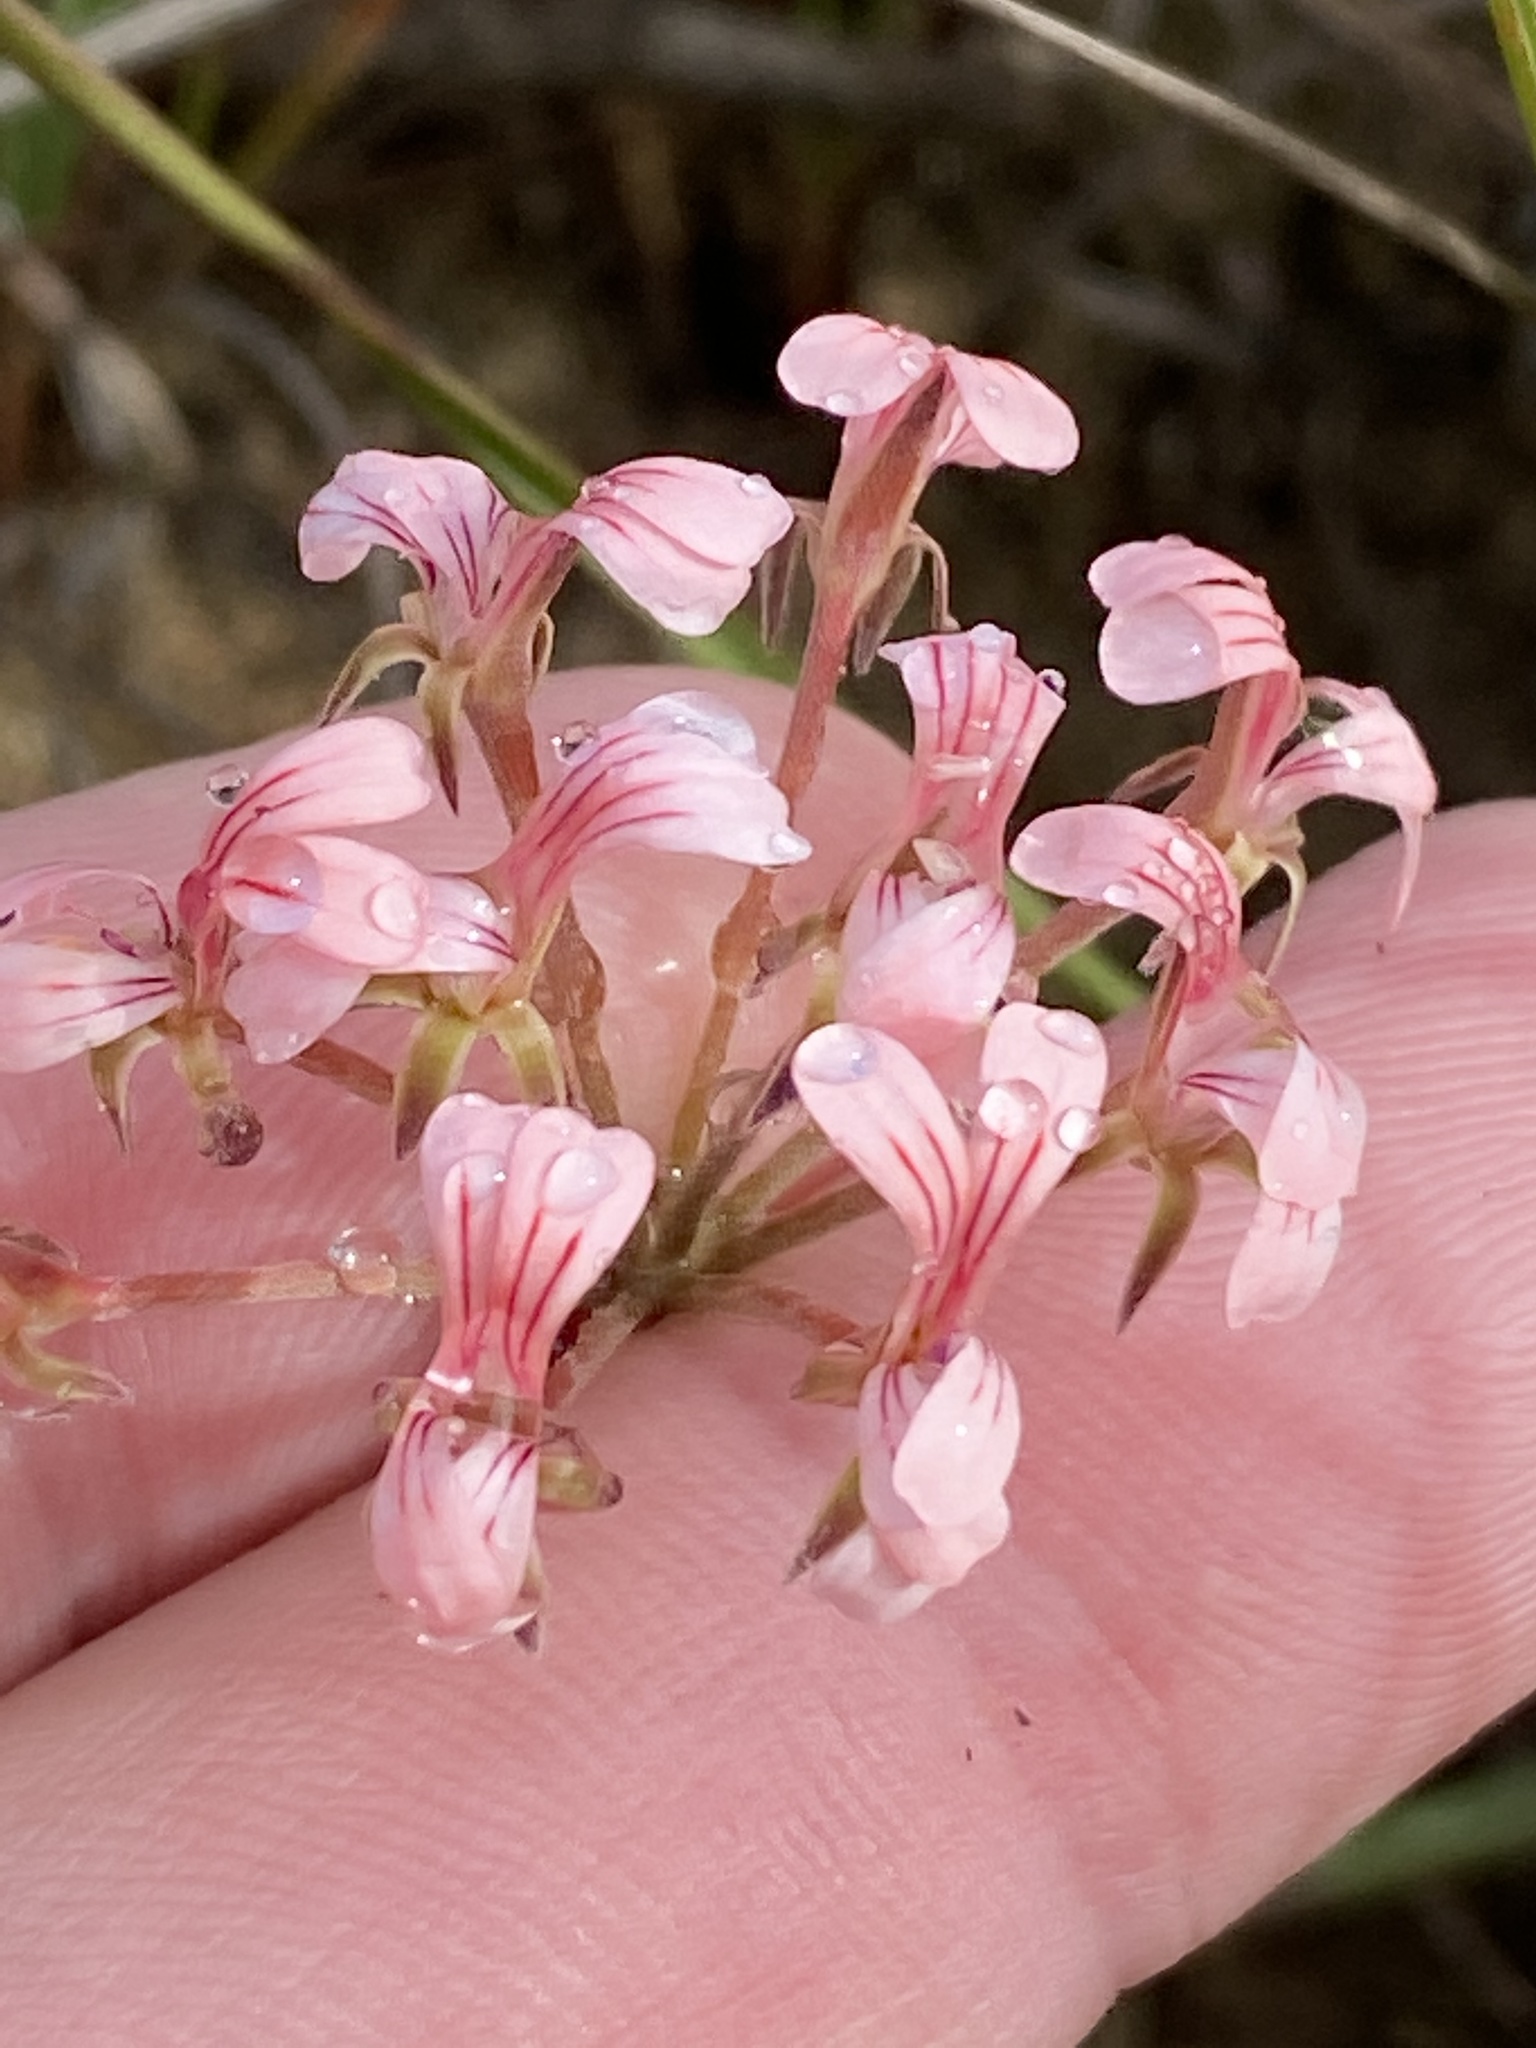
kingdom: Plantae
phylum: Tracheophyta
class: Magnoliopsida
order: Geraniales
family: Geraniaceae
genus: Pelargonium
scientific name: Pelargonium gracillimum
